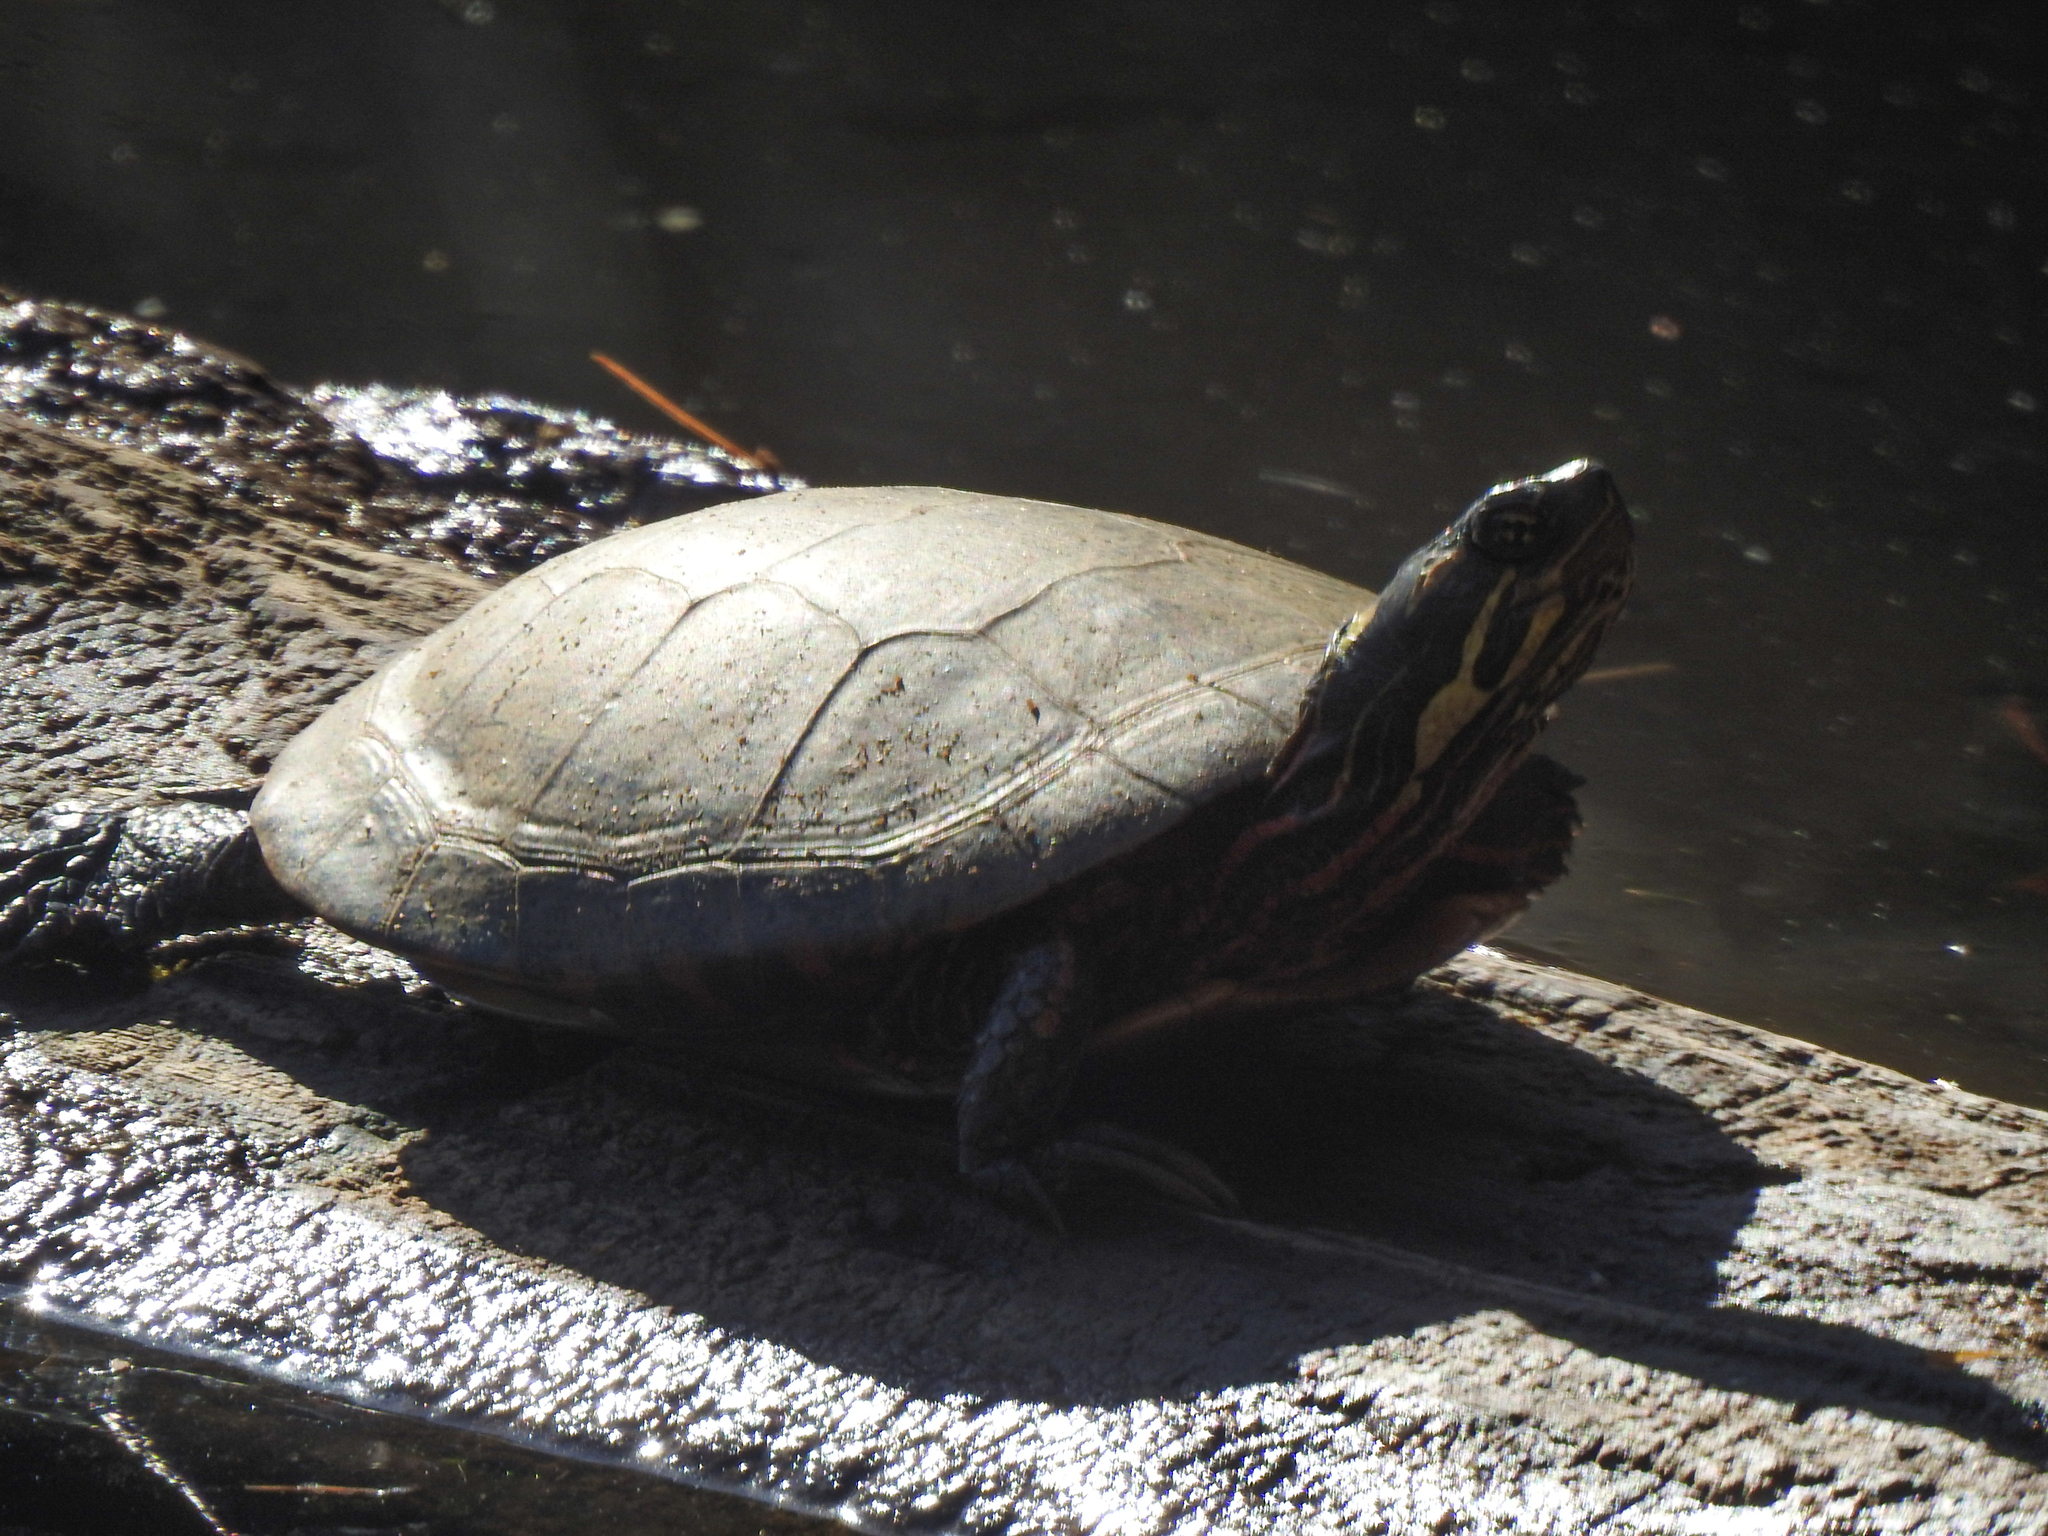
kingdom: Animalia
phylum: Chordata
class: Testudines
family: Emydidae
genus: Chrysemys
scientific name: Chrysemys picta
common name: Painted turtle
